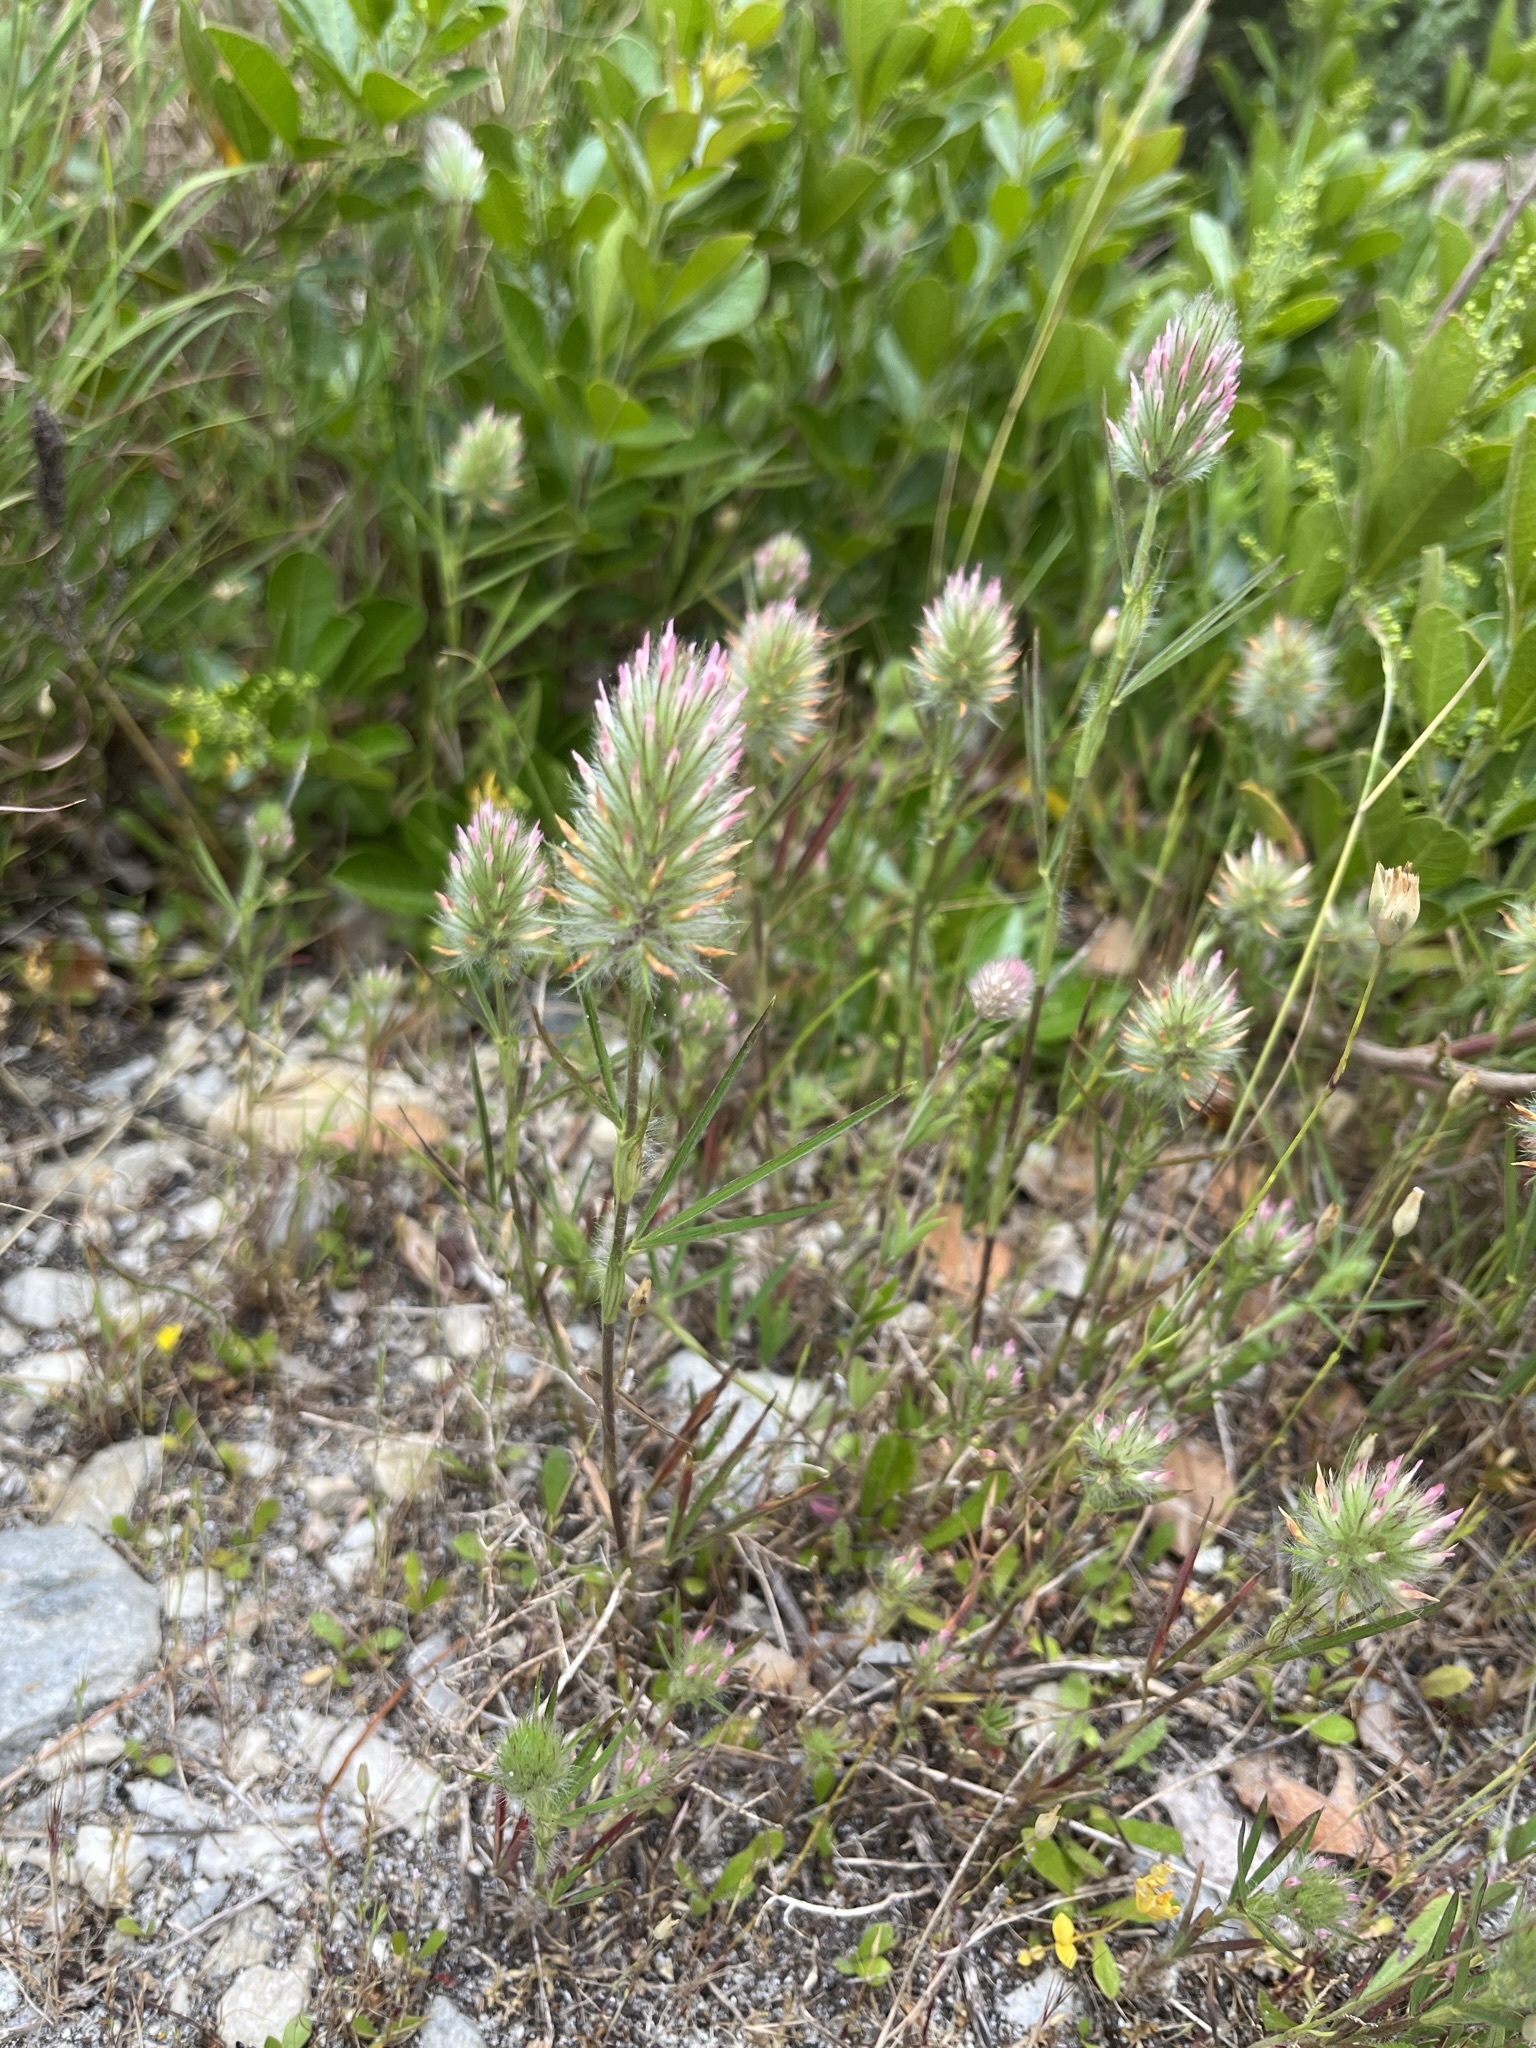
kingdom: Plantae
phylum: Tracheophyta
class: Magnoliopsida
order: Fabales
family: Fabaceae
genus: Trifolium
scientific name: Trifolium angustifolium
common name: Narrow clover
